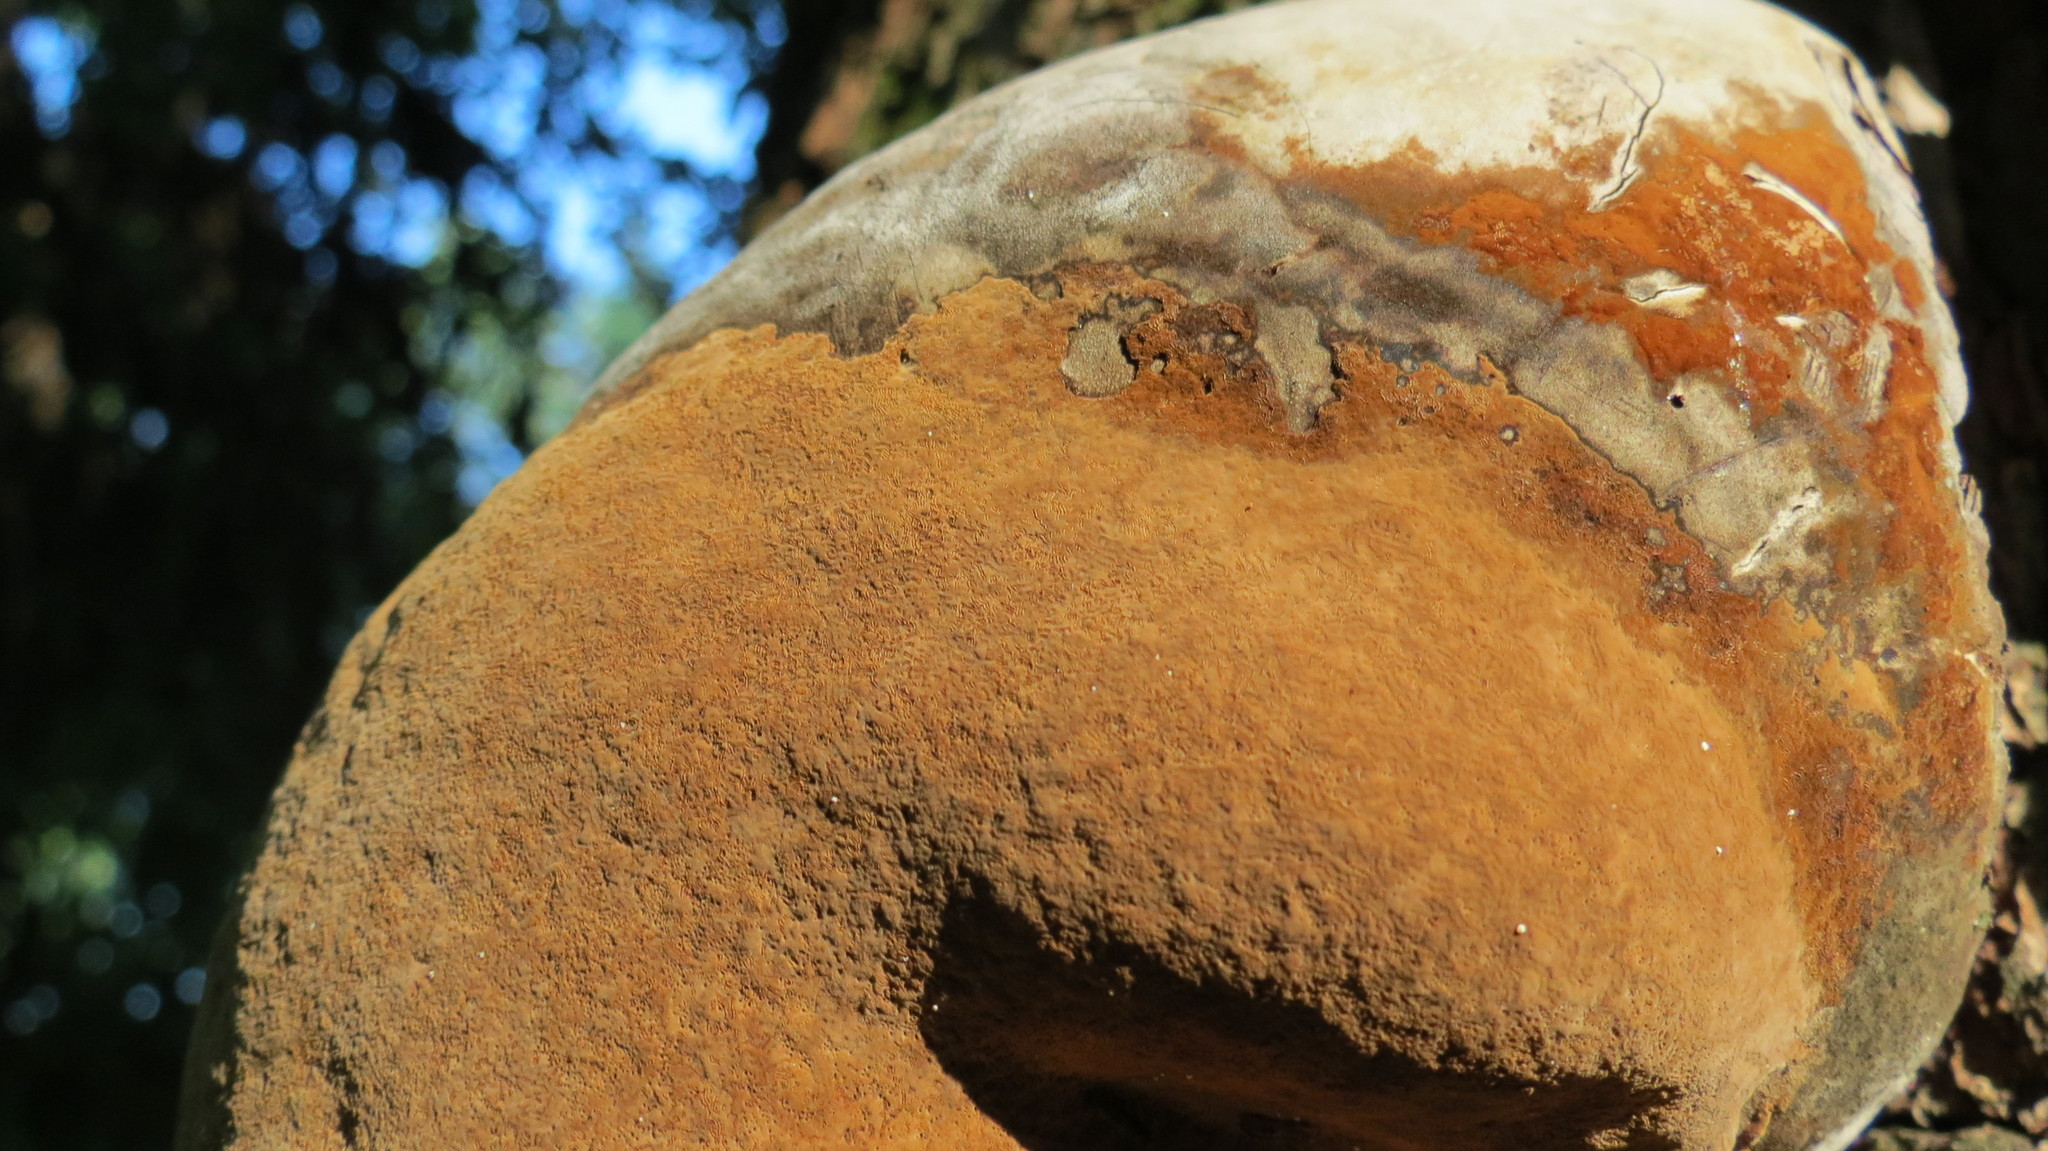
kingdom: Fungi
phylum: Basidiomycota
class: Agaricomycetes
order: Hymenochaetales
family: Hymenochaetaceae
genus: Fomitiporia
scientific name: Fomitiporia robusta
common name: Robust bracket
